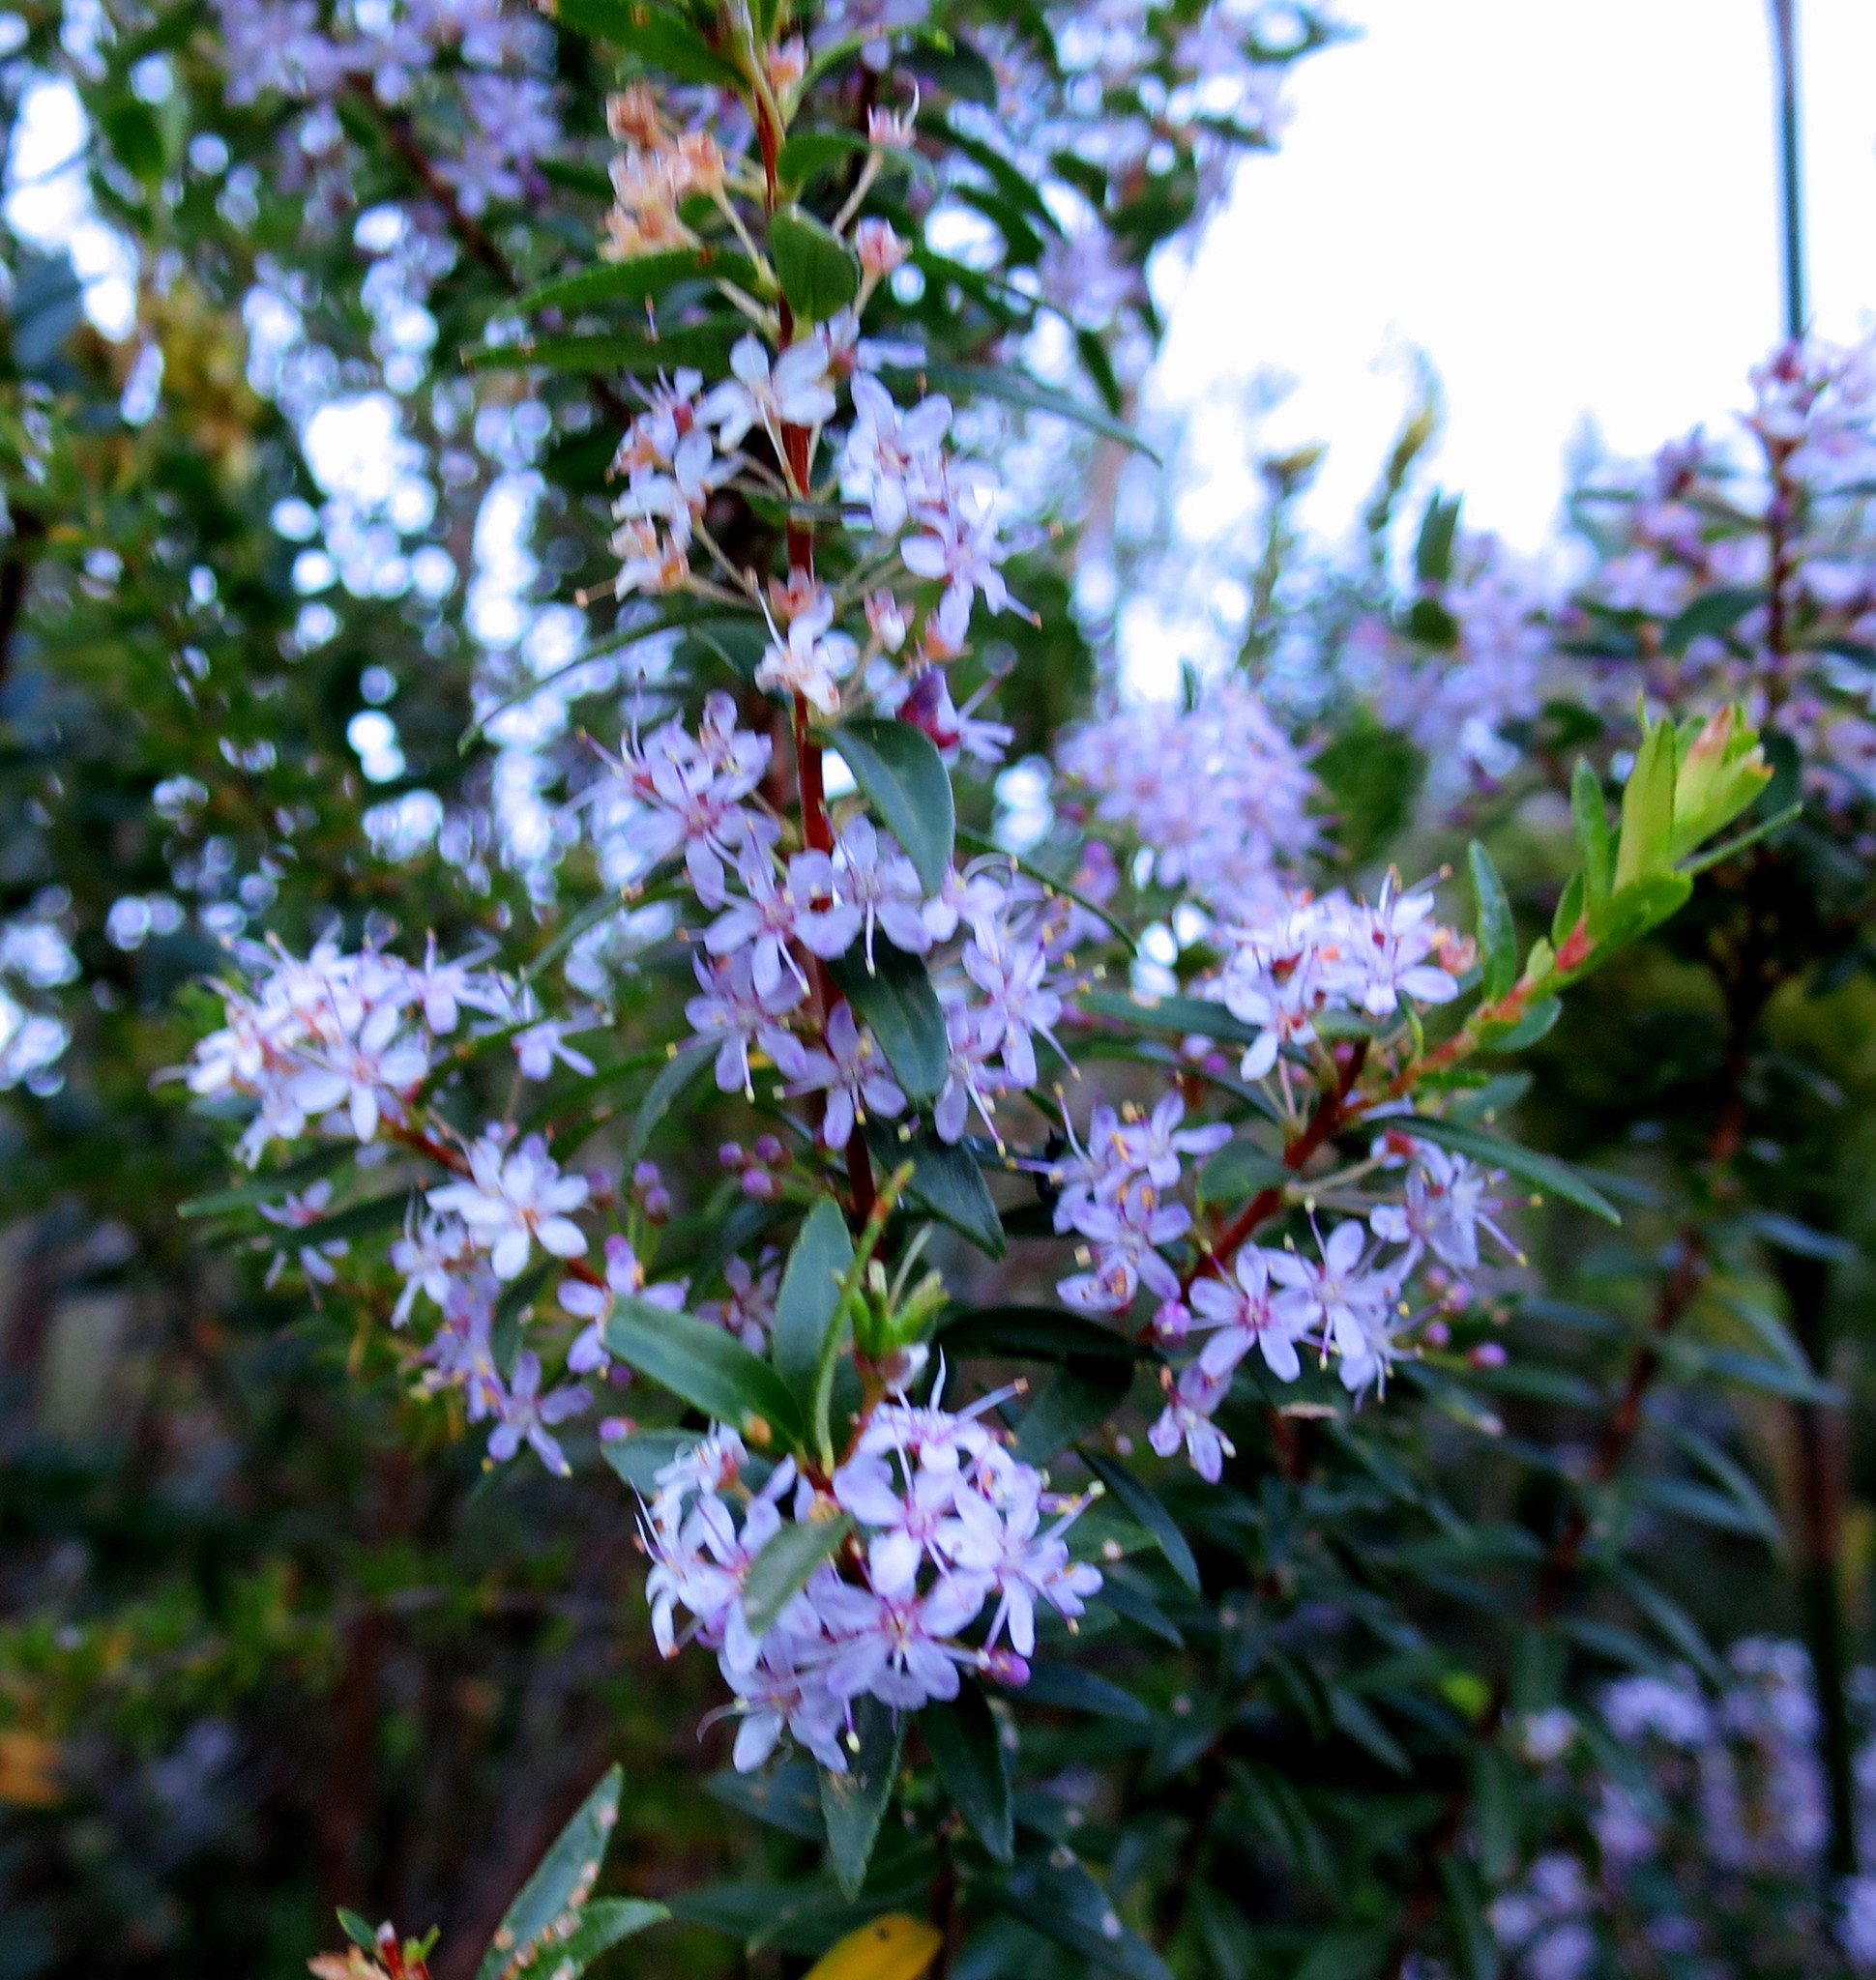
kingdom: Plantae
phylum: Tracheophyta
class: Magnoliopsida
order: Sapindales
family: Rutaceae
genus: Agathosma
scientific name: Agathosma ovata
